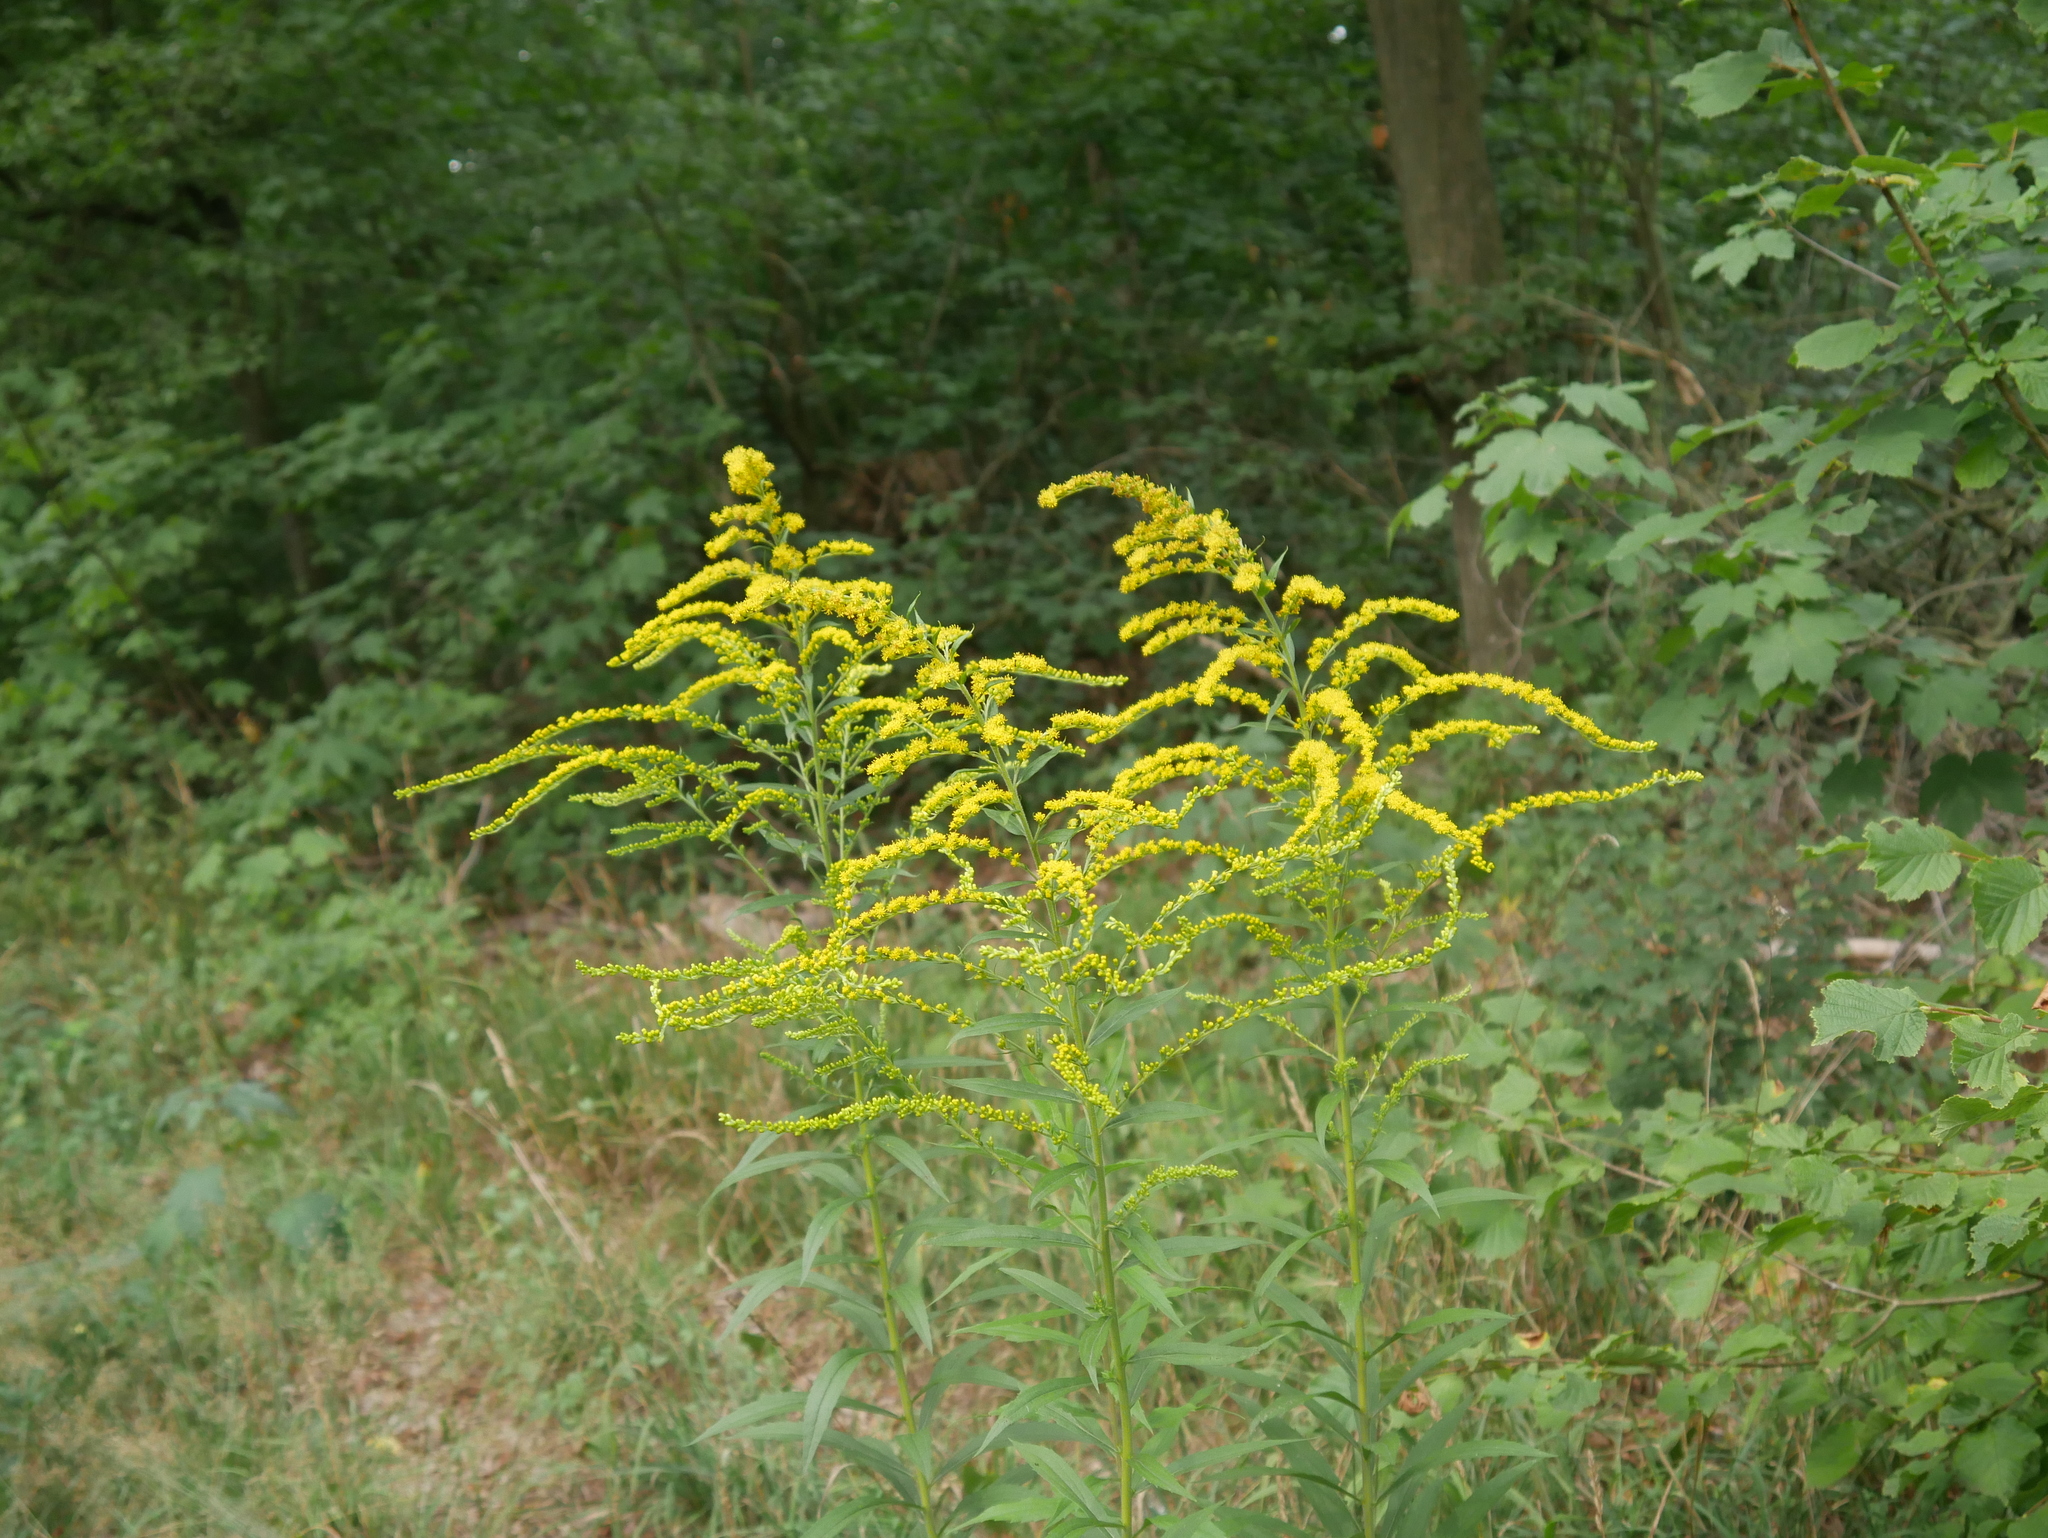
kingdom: Plantae
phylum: Tracheophyta
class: Magnoliopsida
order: Asterales
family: Asteraceae
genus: Solidago
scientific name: Solidago canadensis
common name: Canada goldenrod
